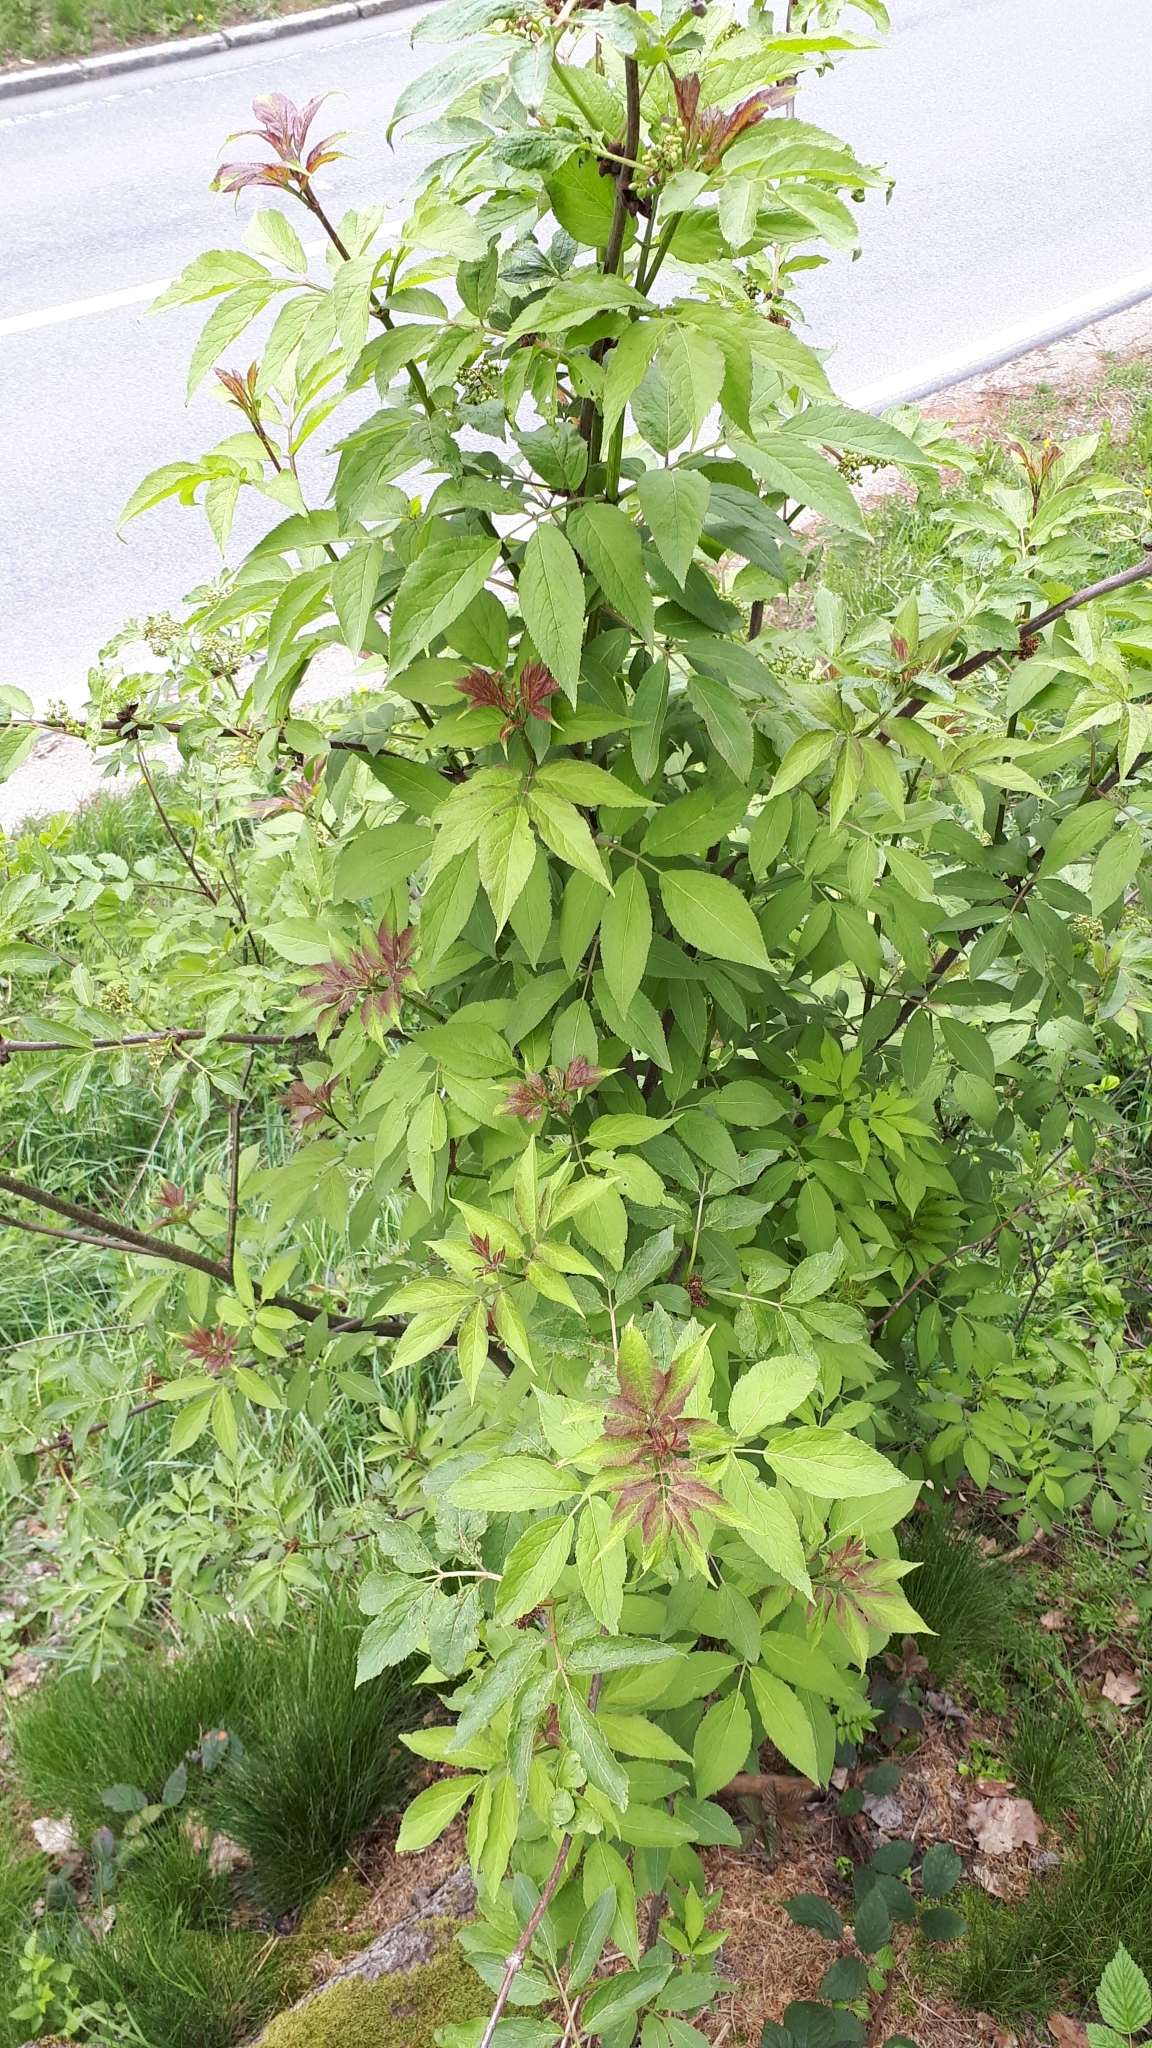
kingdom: Plantae
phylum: Tracheophyta
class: Magnoliopsida
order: Dipsacales
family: Viburnaceae
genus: Sambucus
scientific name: Sambucus racemosa
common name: Red-berried elder
